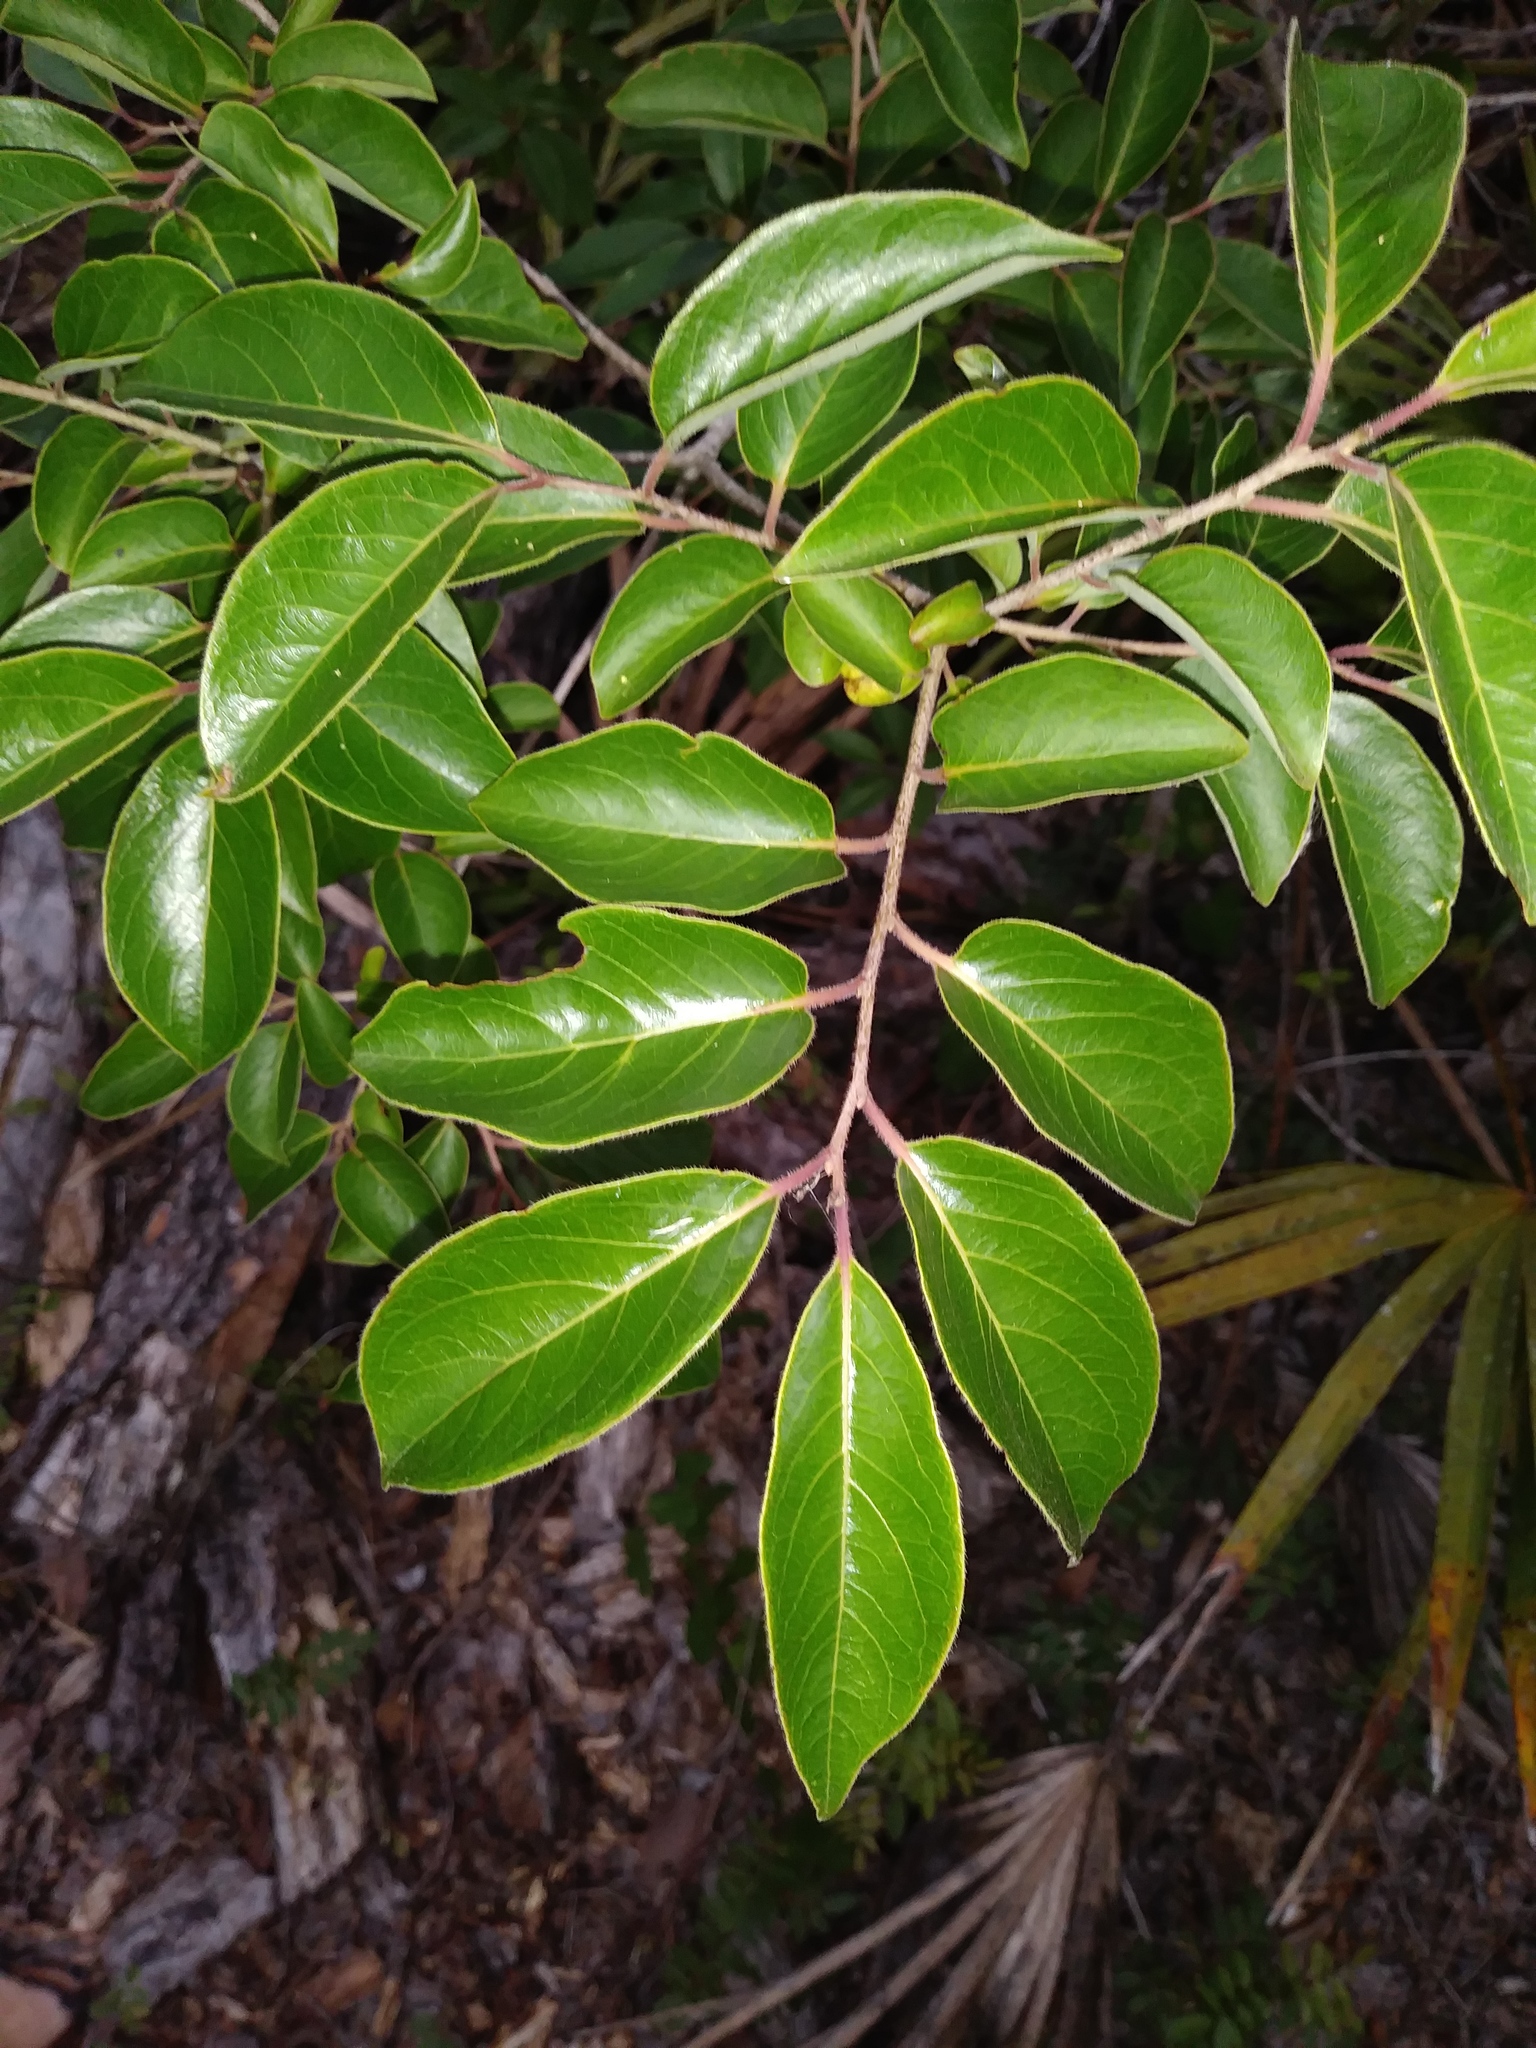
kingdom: Plantae
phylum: Tracheophyta
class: Magnoliopsida
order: Ericales
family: Ebenaceae
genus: Diospyros
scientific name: Diospyros virginiana
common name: Persimmon
